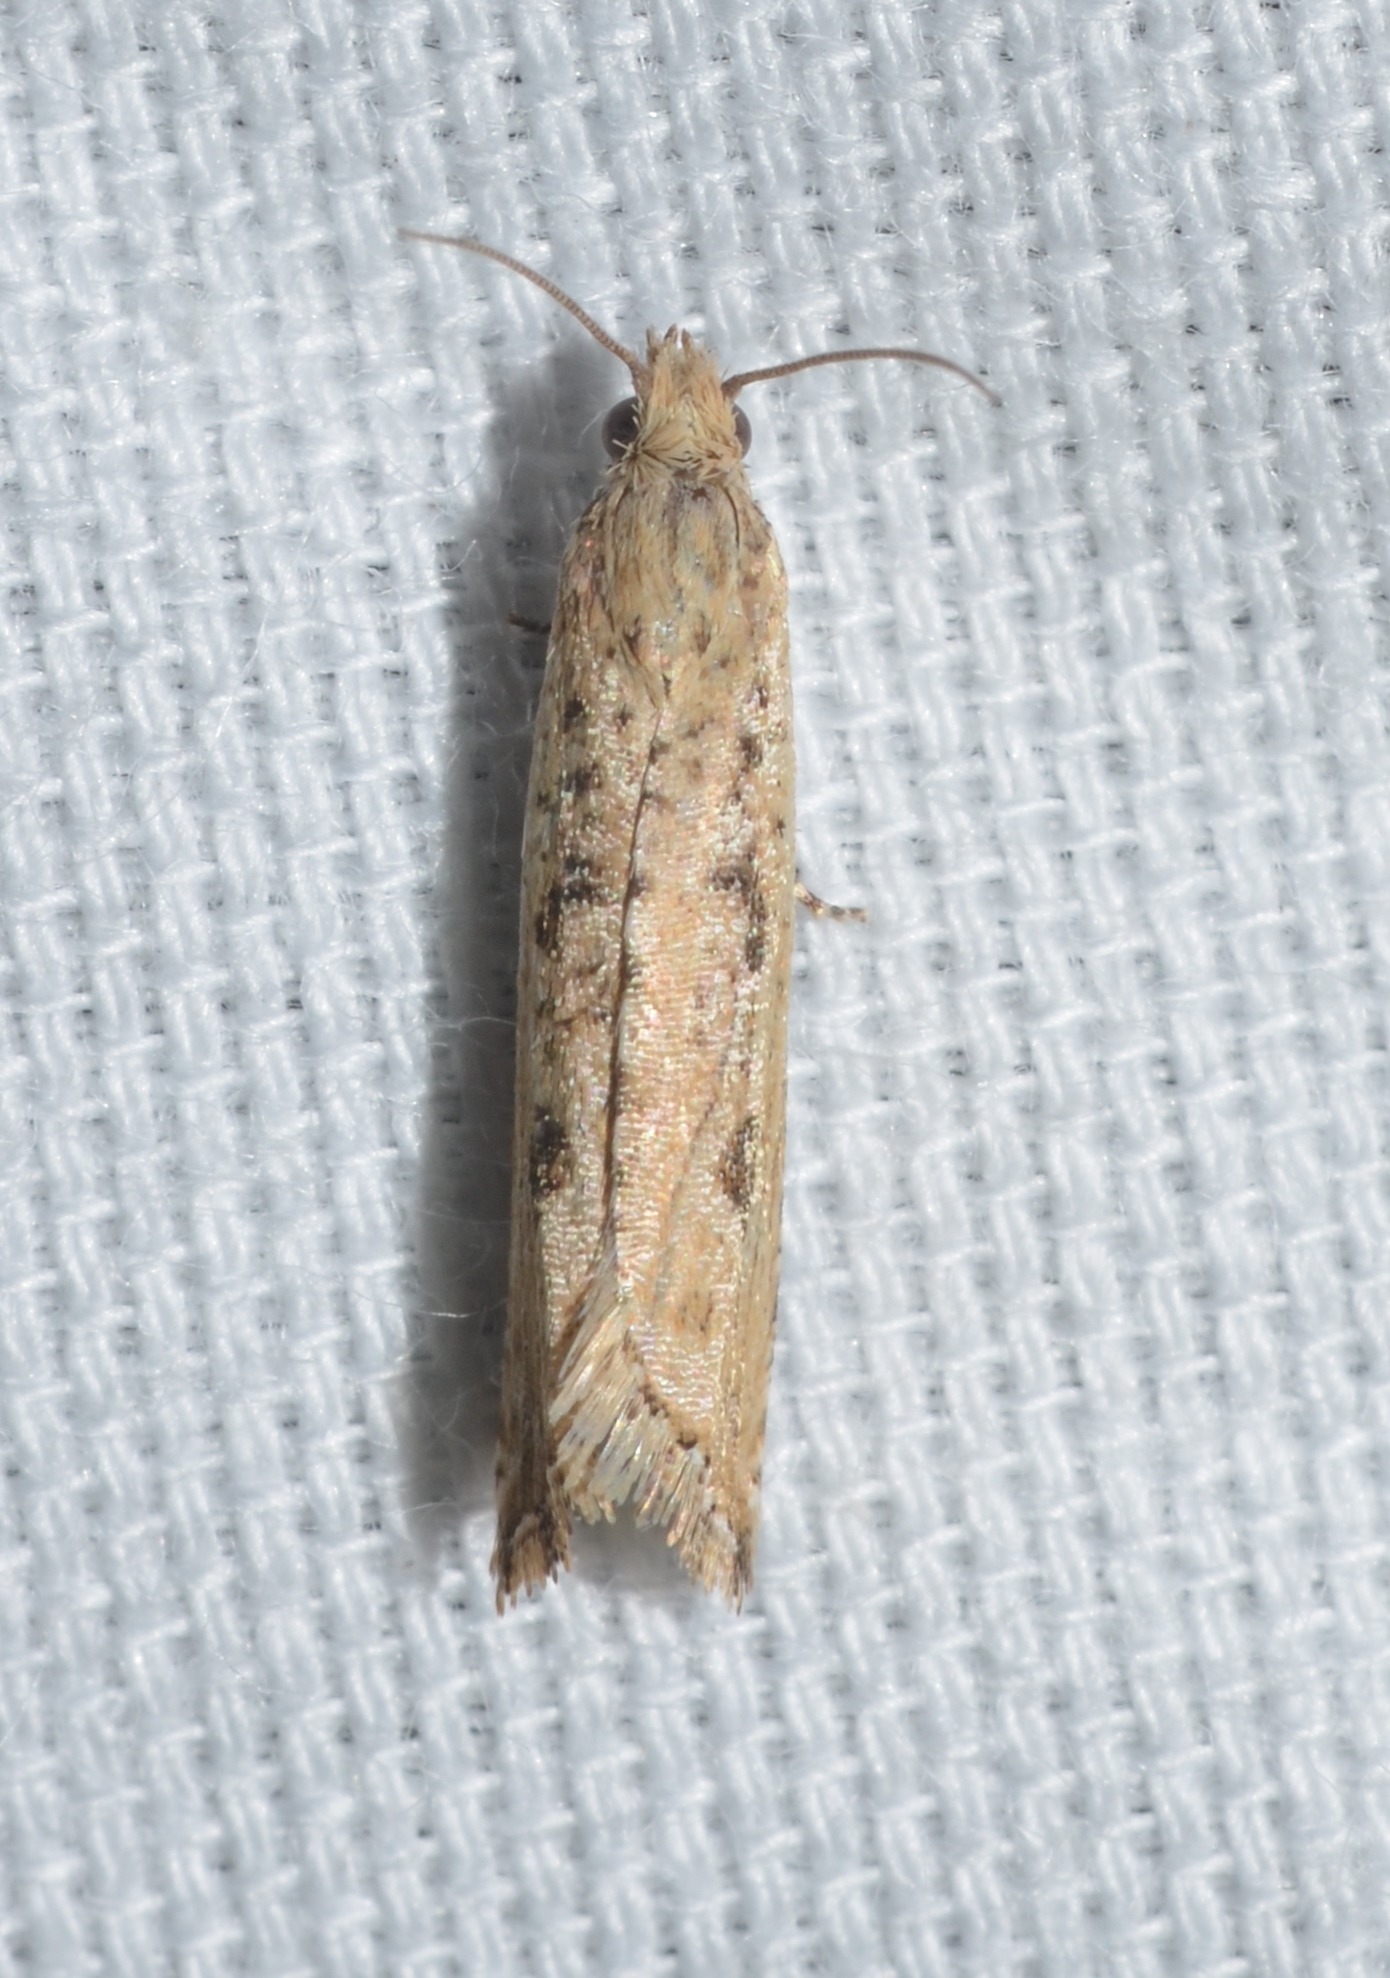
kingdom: Animalia
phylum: Arthropoda
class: Insecta
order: Lepidoptera
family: Tortricidae
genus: Bactra
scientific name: Bactra verutana
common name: Javelin moth
